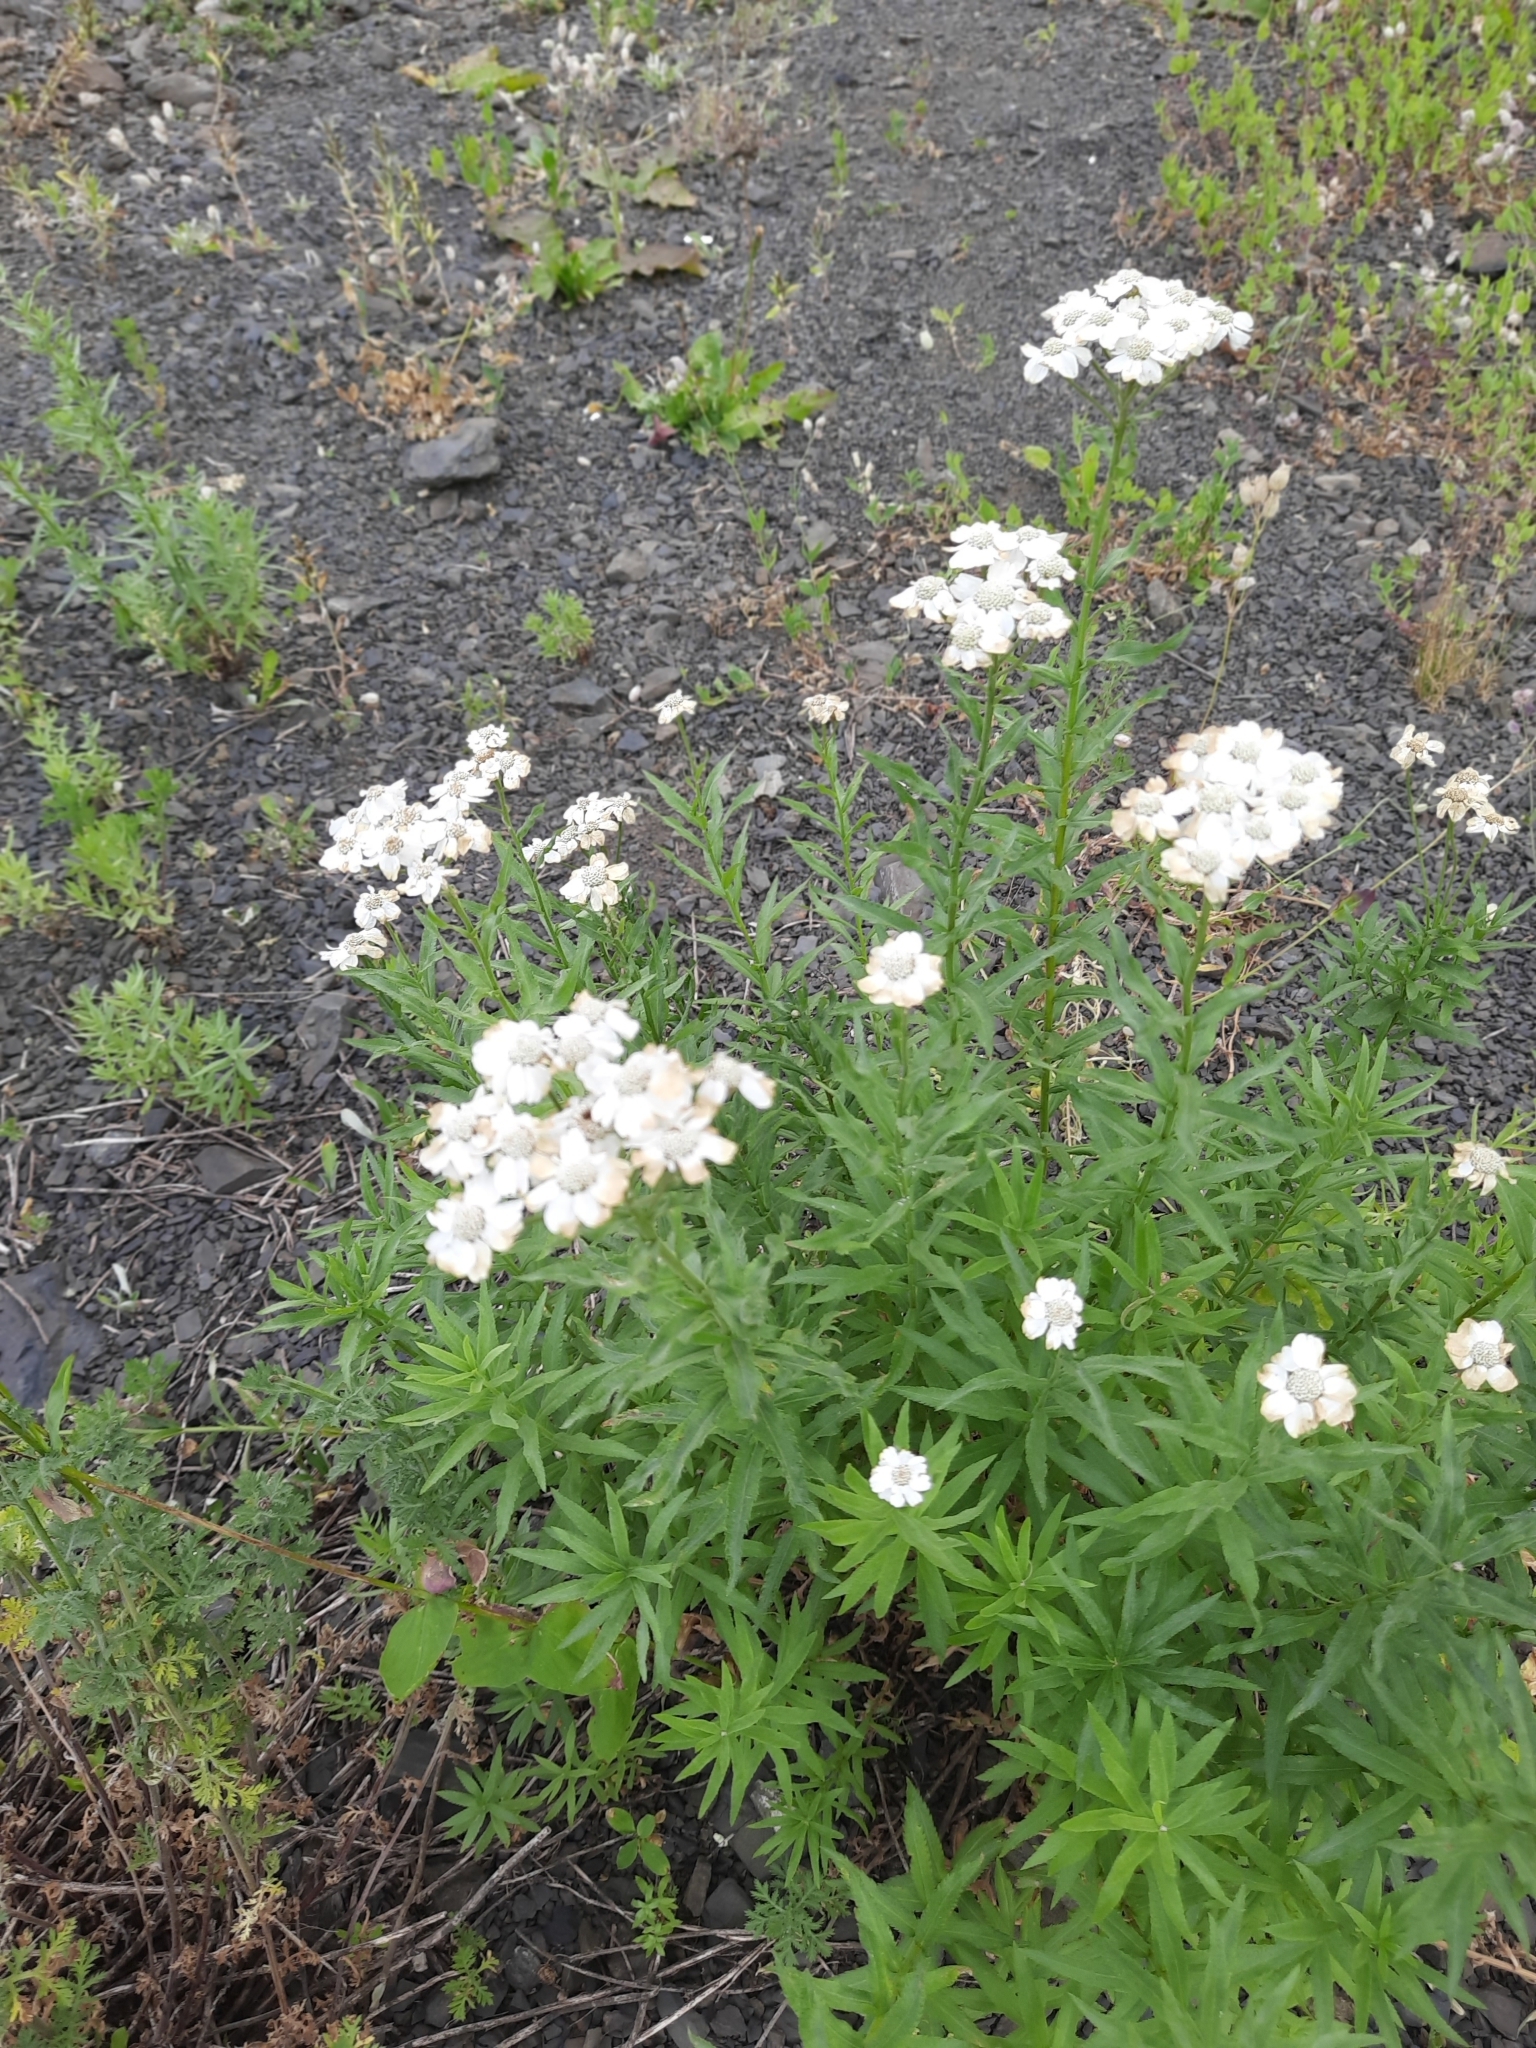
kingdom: Plantae
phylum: Tracheophyta
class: Magnoliopsida
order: Asterales
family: Asteraceae
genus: Achillea
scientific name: Achillea biserrata
